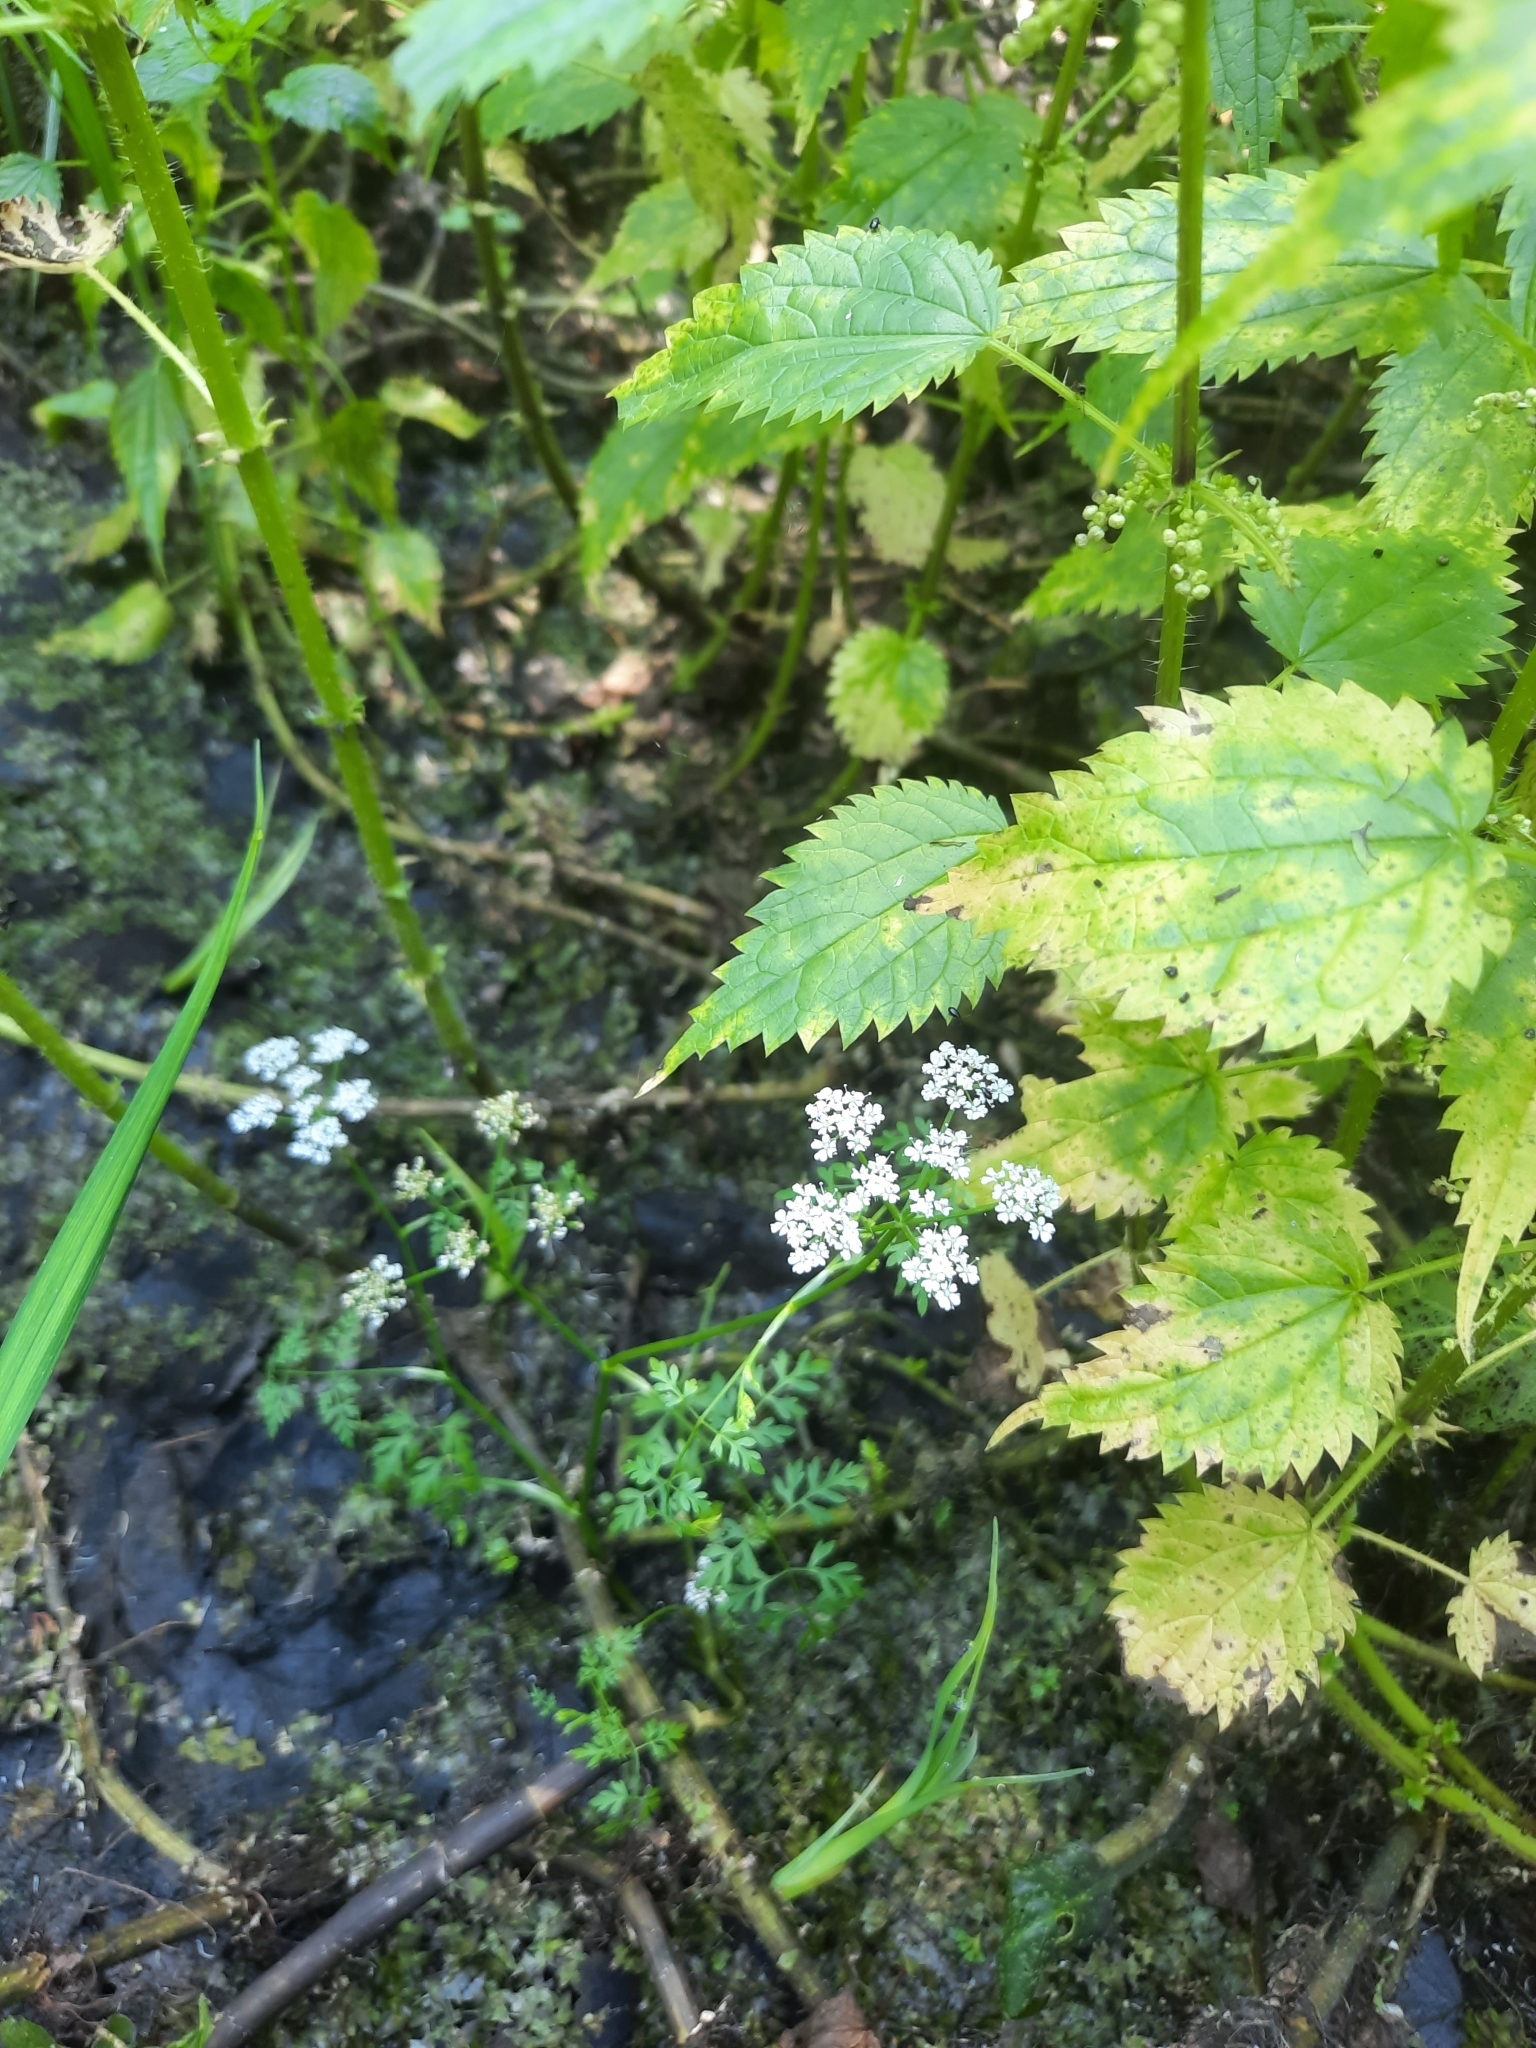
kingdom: Plantae
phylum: Tracheophyta
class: Magnoliopsida
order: Apiales
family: Apiaceae
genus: Oenanthe
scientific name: Oenanthe aquatica
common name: Fine-leaved water-dropwort
